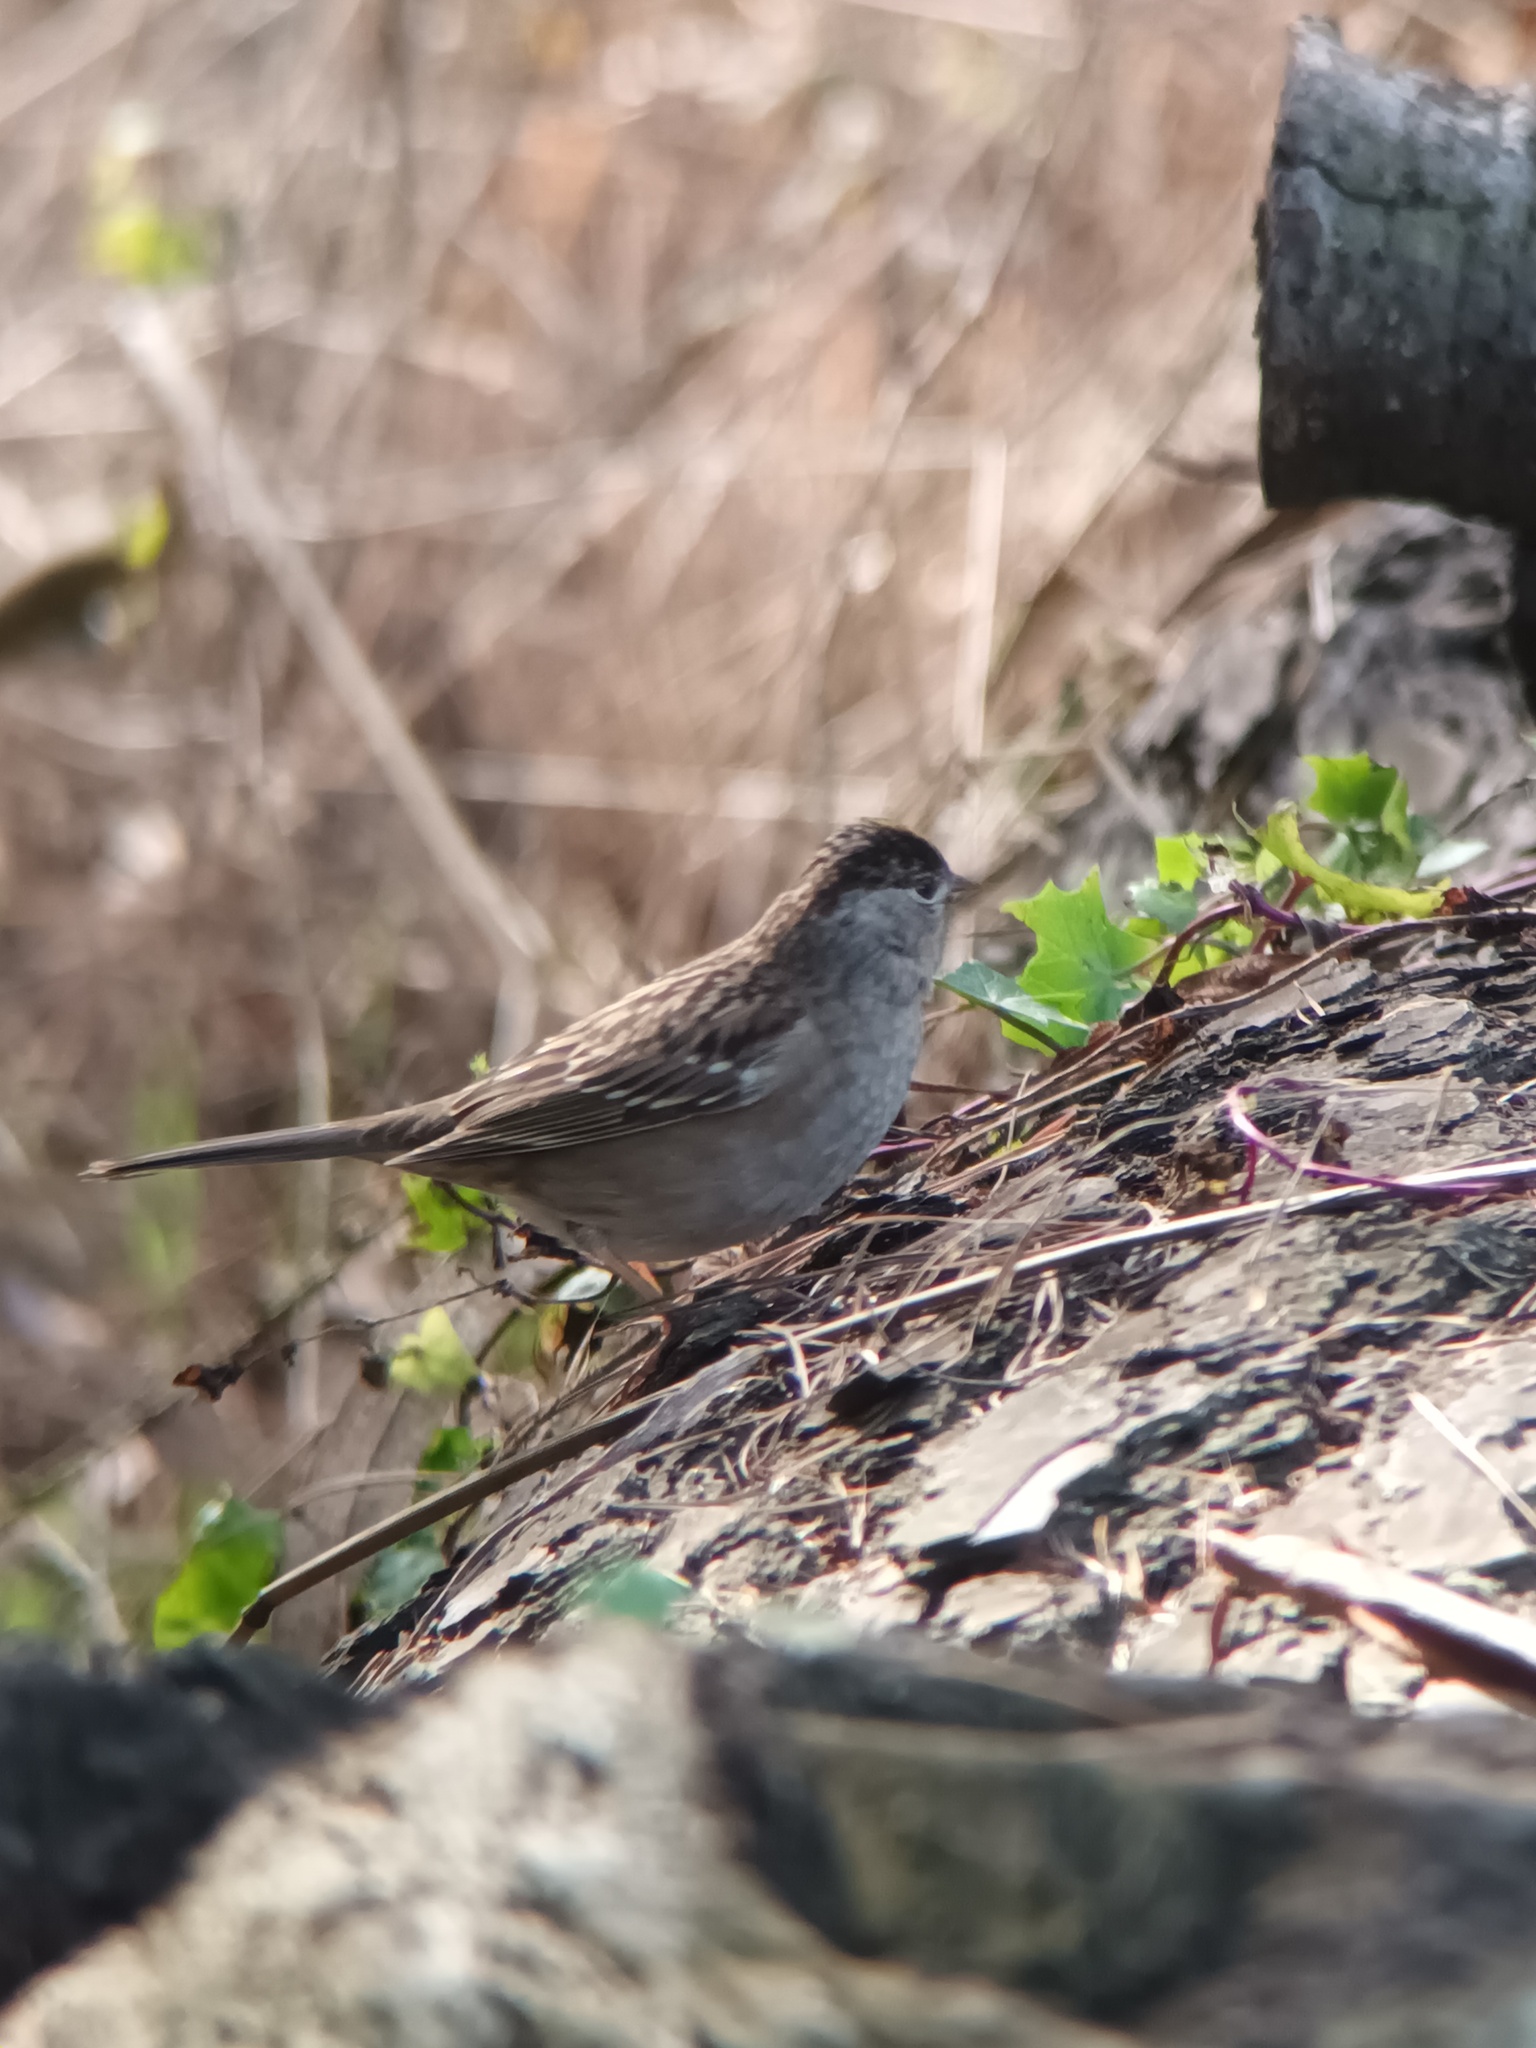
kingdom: Animalia
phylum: Chordata
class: Aves
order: Passeriformes
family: Passerellidae
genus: Zonotrichia
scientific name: Zonotrichia atricapilla
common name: Golden-crowned sparrow
